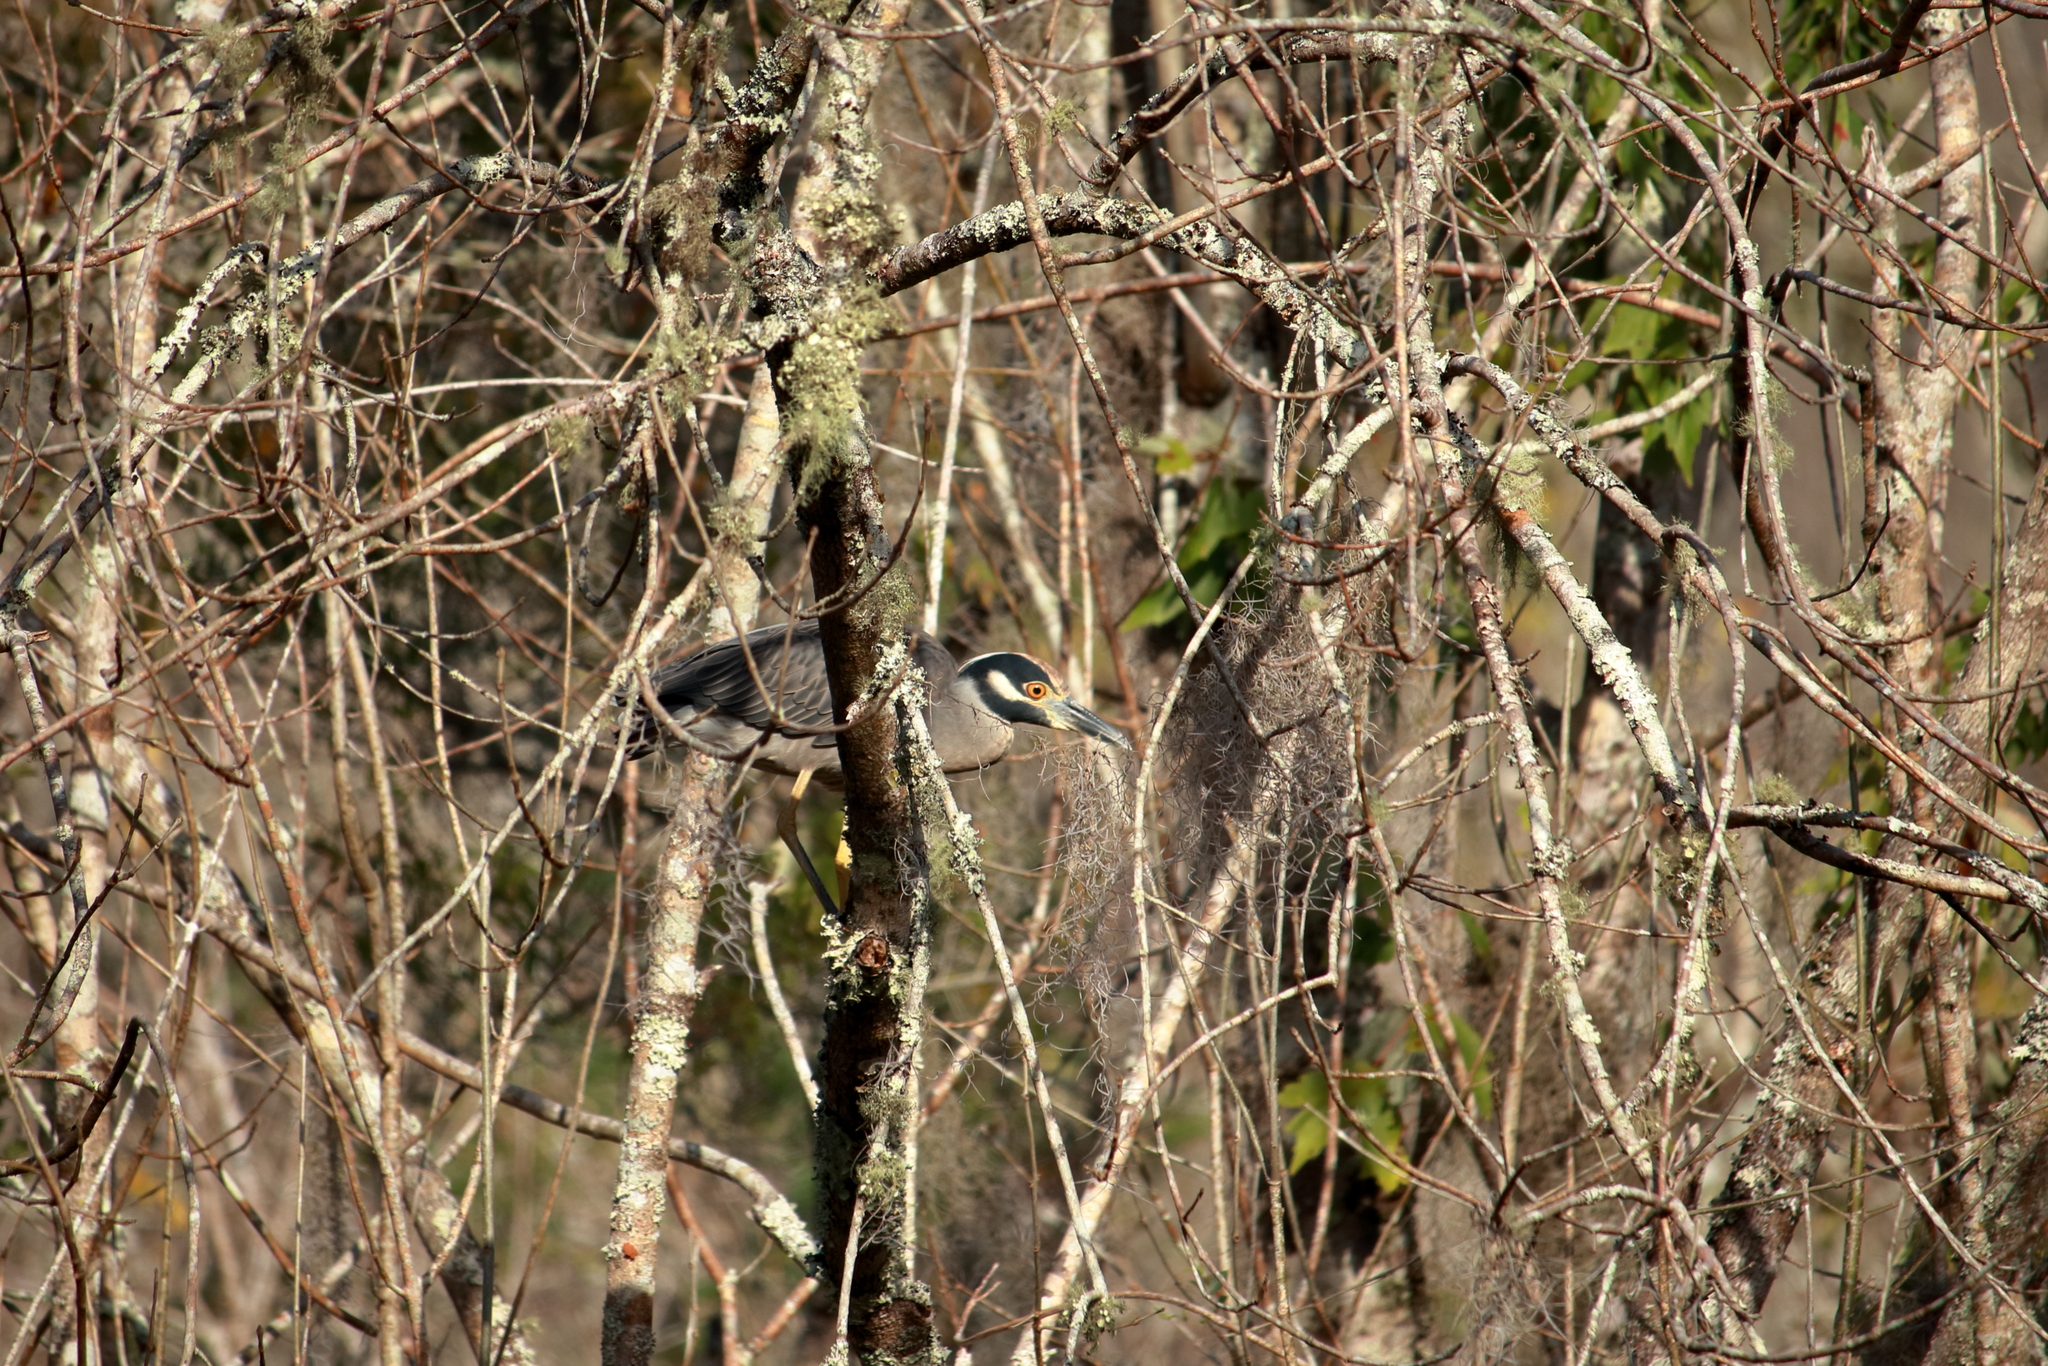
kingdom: Animalia
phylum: Chordata
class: Aves
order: Pelecaniformes
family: Ardeidae
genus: Nyctanassa
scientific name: Nyctanassa violacea
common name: Yellow-crowned night heron
